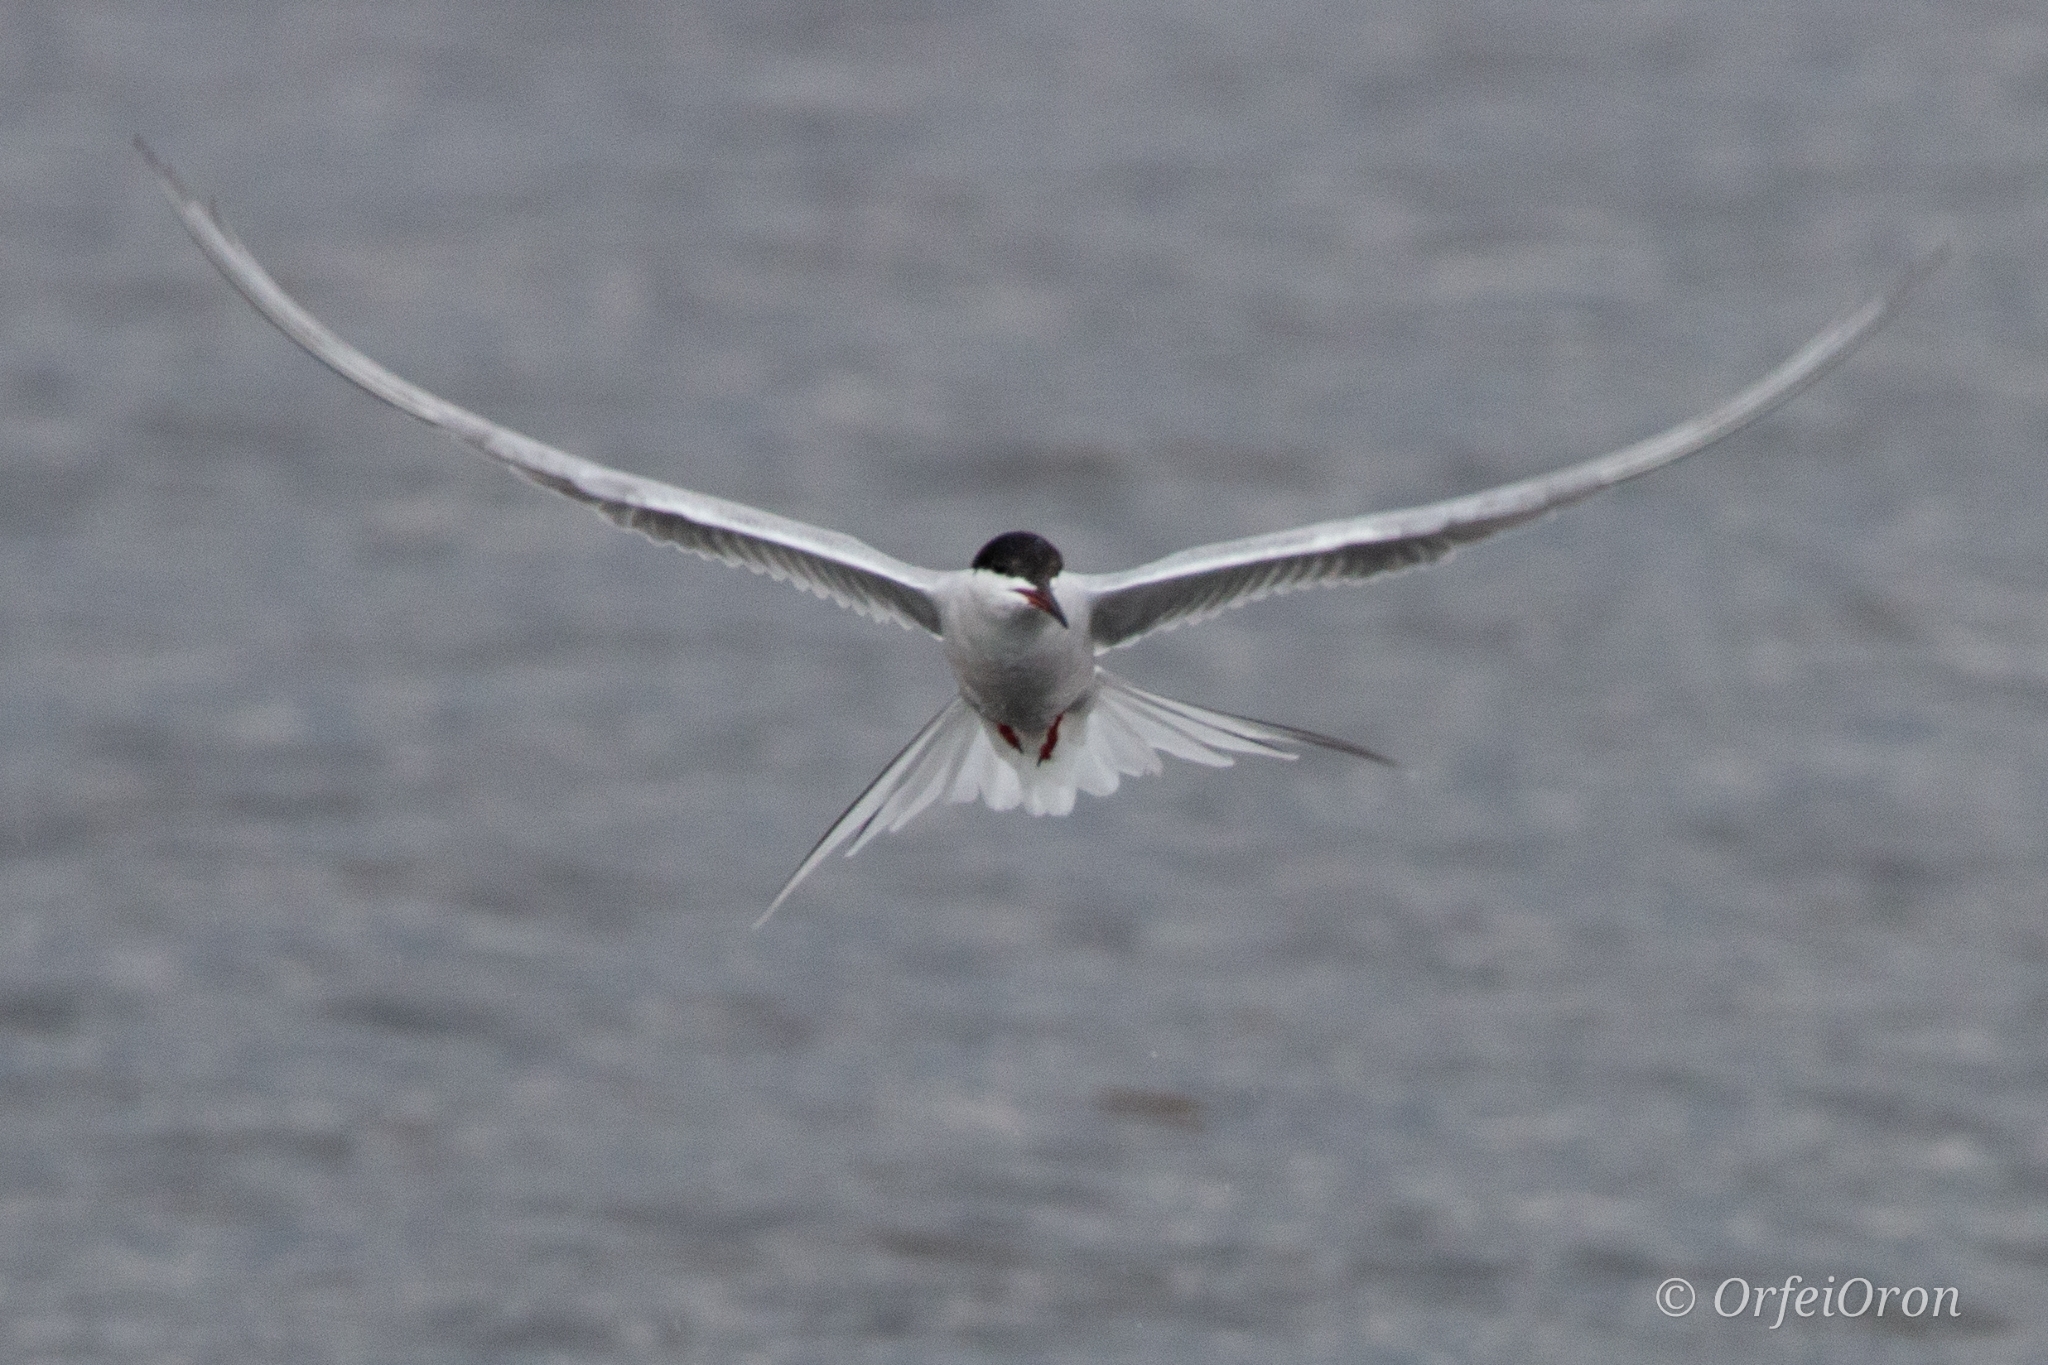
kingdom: Animalia
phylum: Chordata
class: Aves
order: Charadriiformes
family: Laridae
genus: Sterna
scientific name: Sterna hirundo
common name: Common tern
